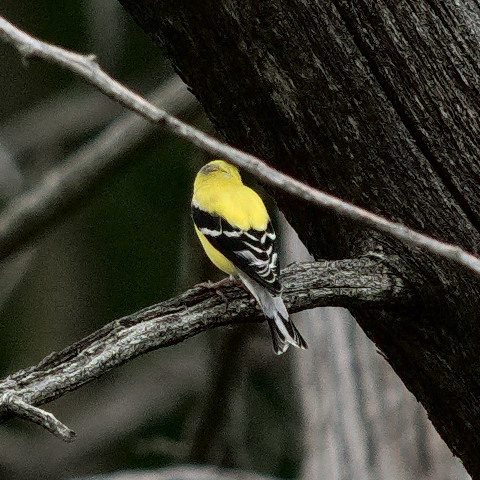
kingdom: Animalia
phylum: Chordata
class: Aves
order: Passeriformes
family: Fringillidae
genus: Spinus
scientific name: Spinus tristis
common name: American goldfinch
